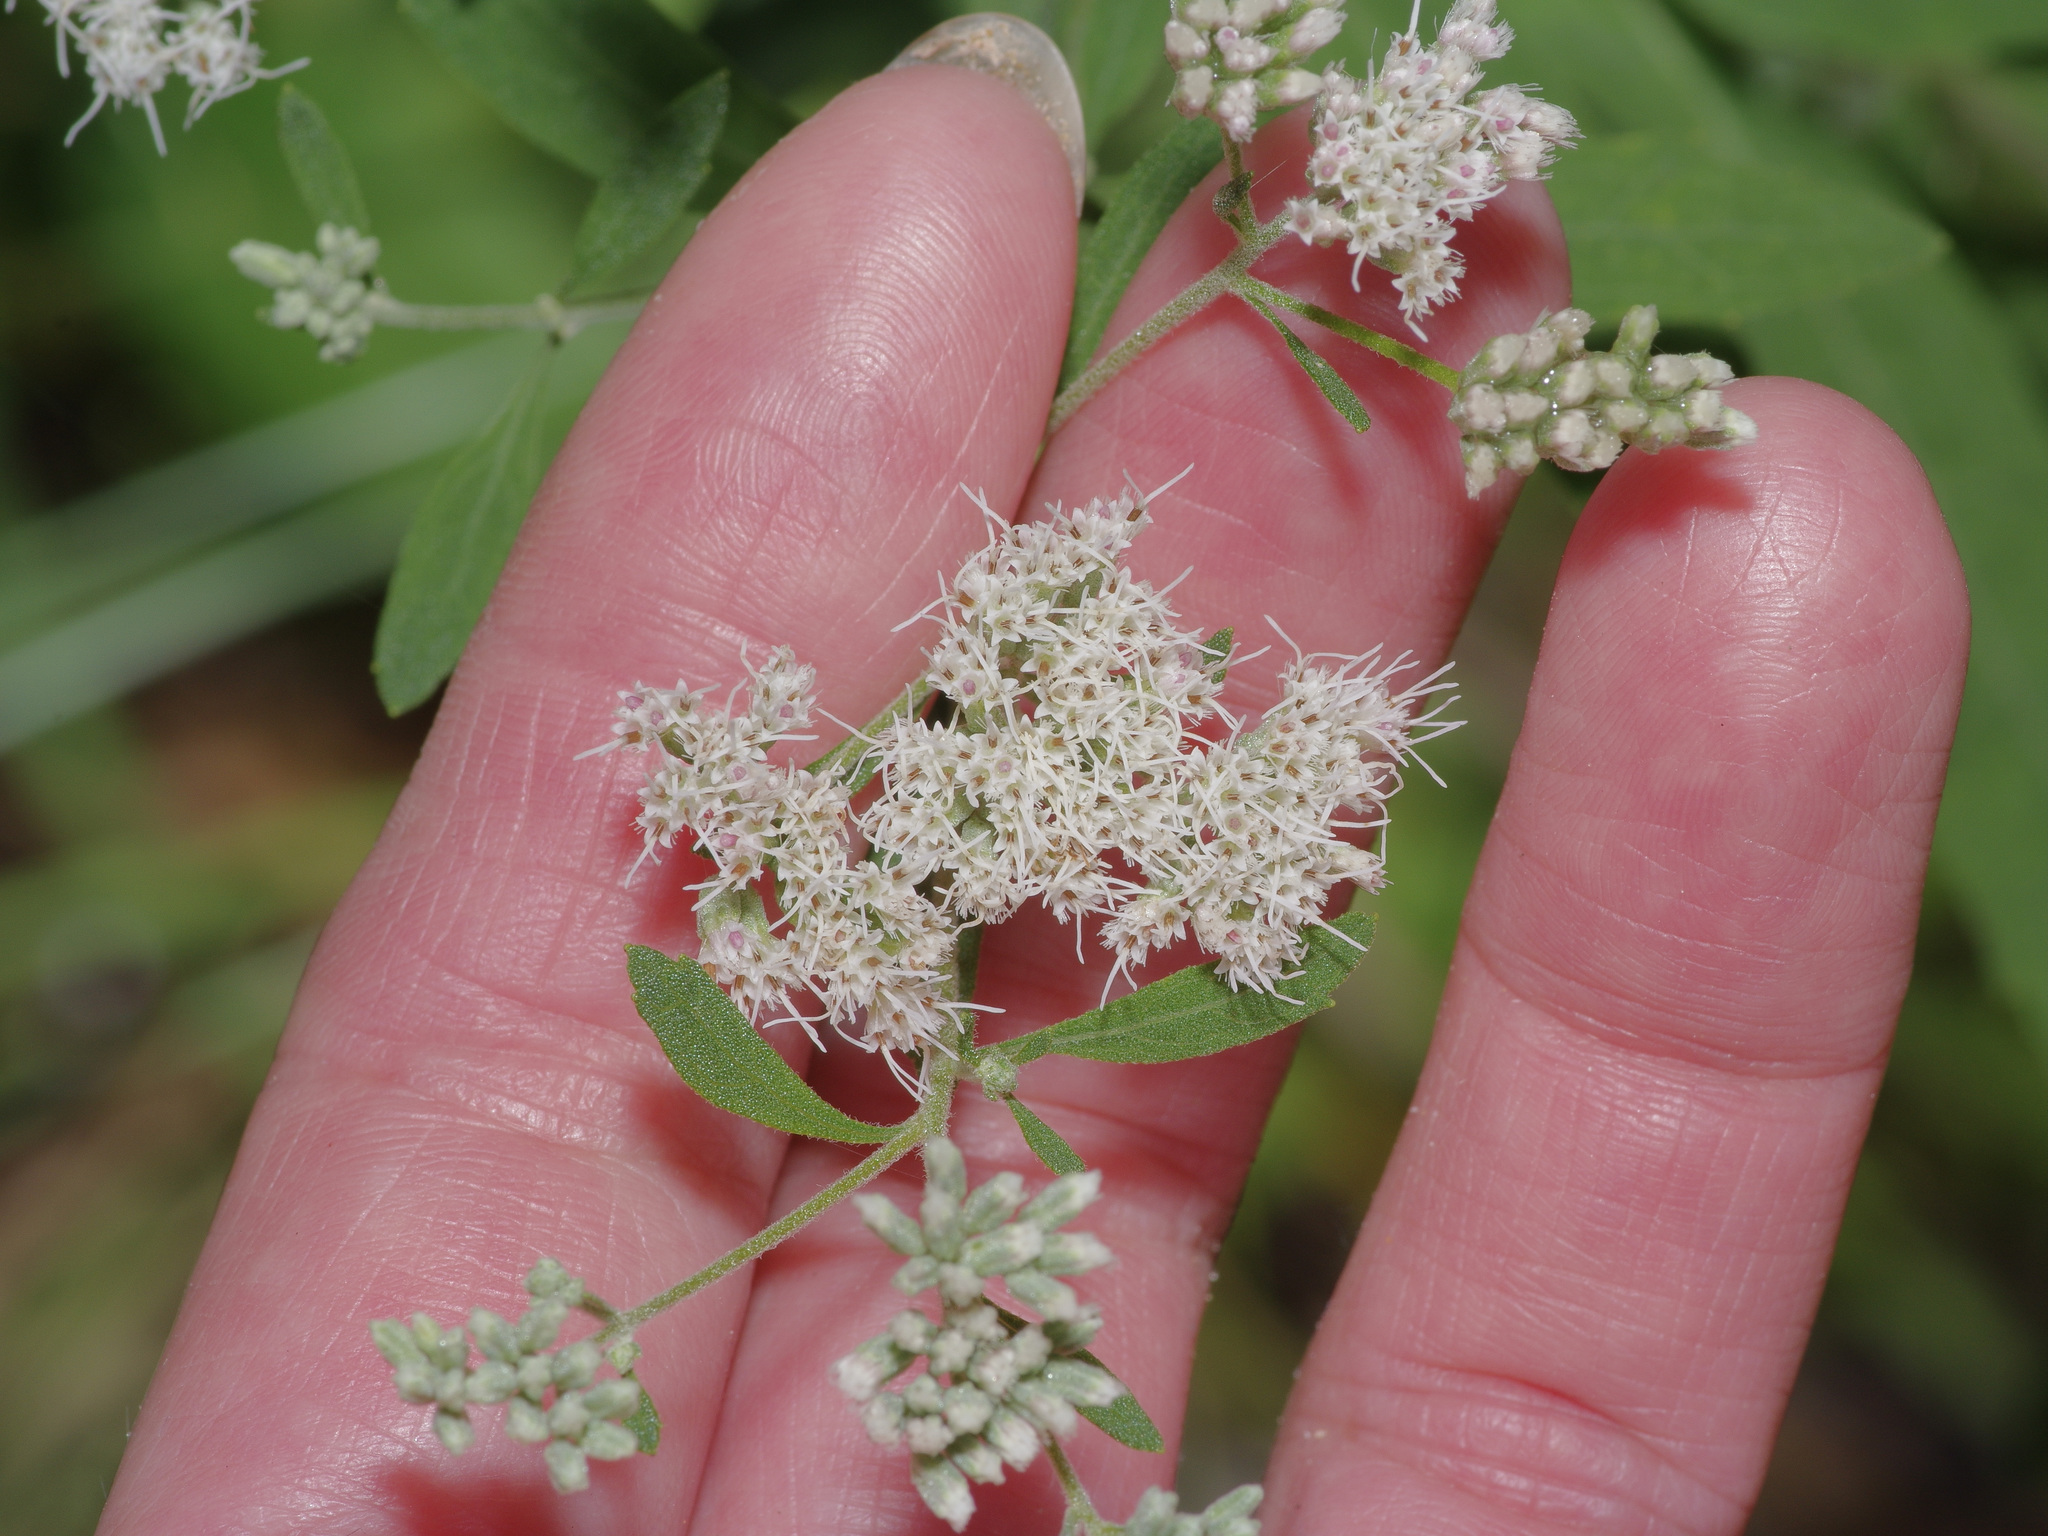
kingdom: Plantae
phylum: Tracheophyta
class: Magnoliopsida
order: Asterales
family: Asteraceae
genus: Eupatorium
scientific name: Eupatorium semiserratum
